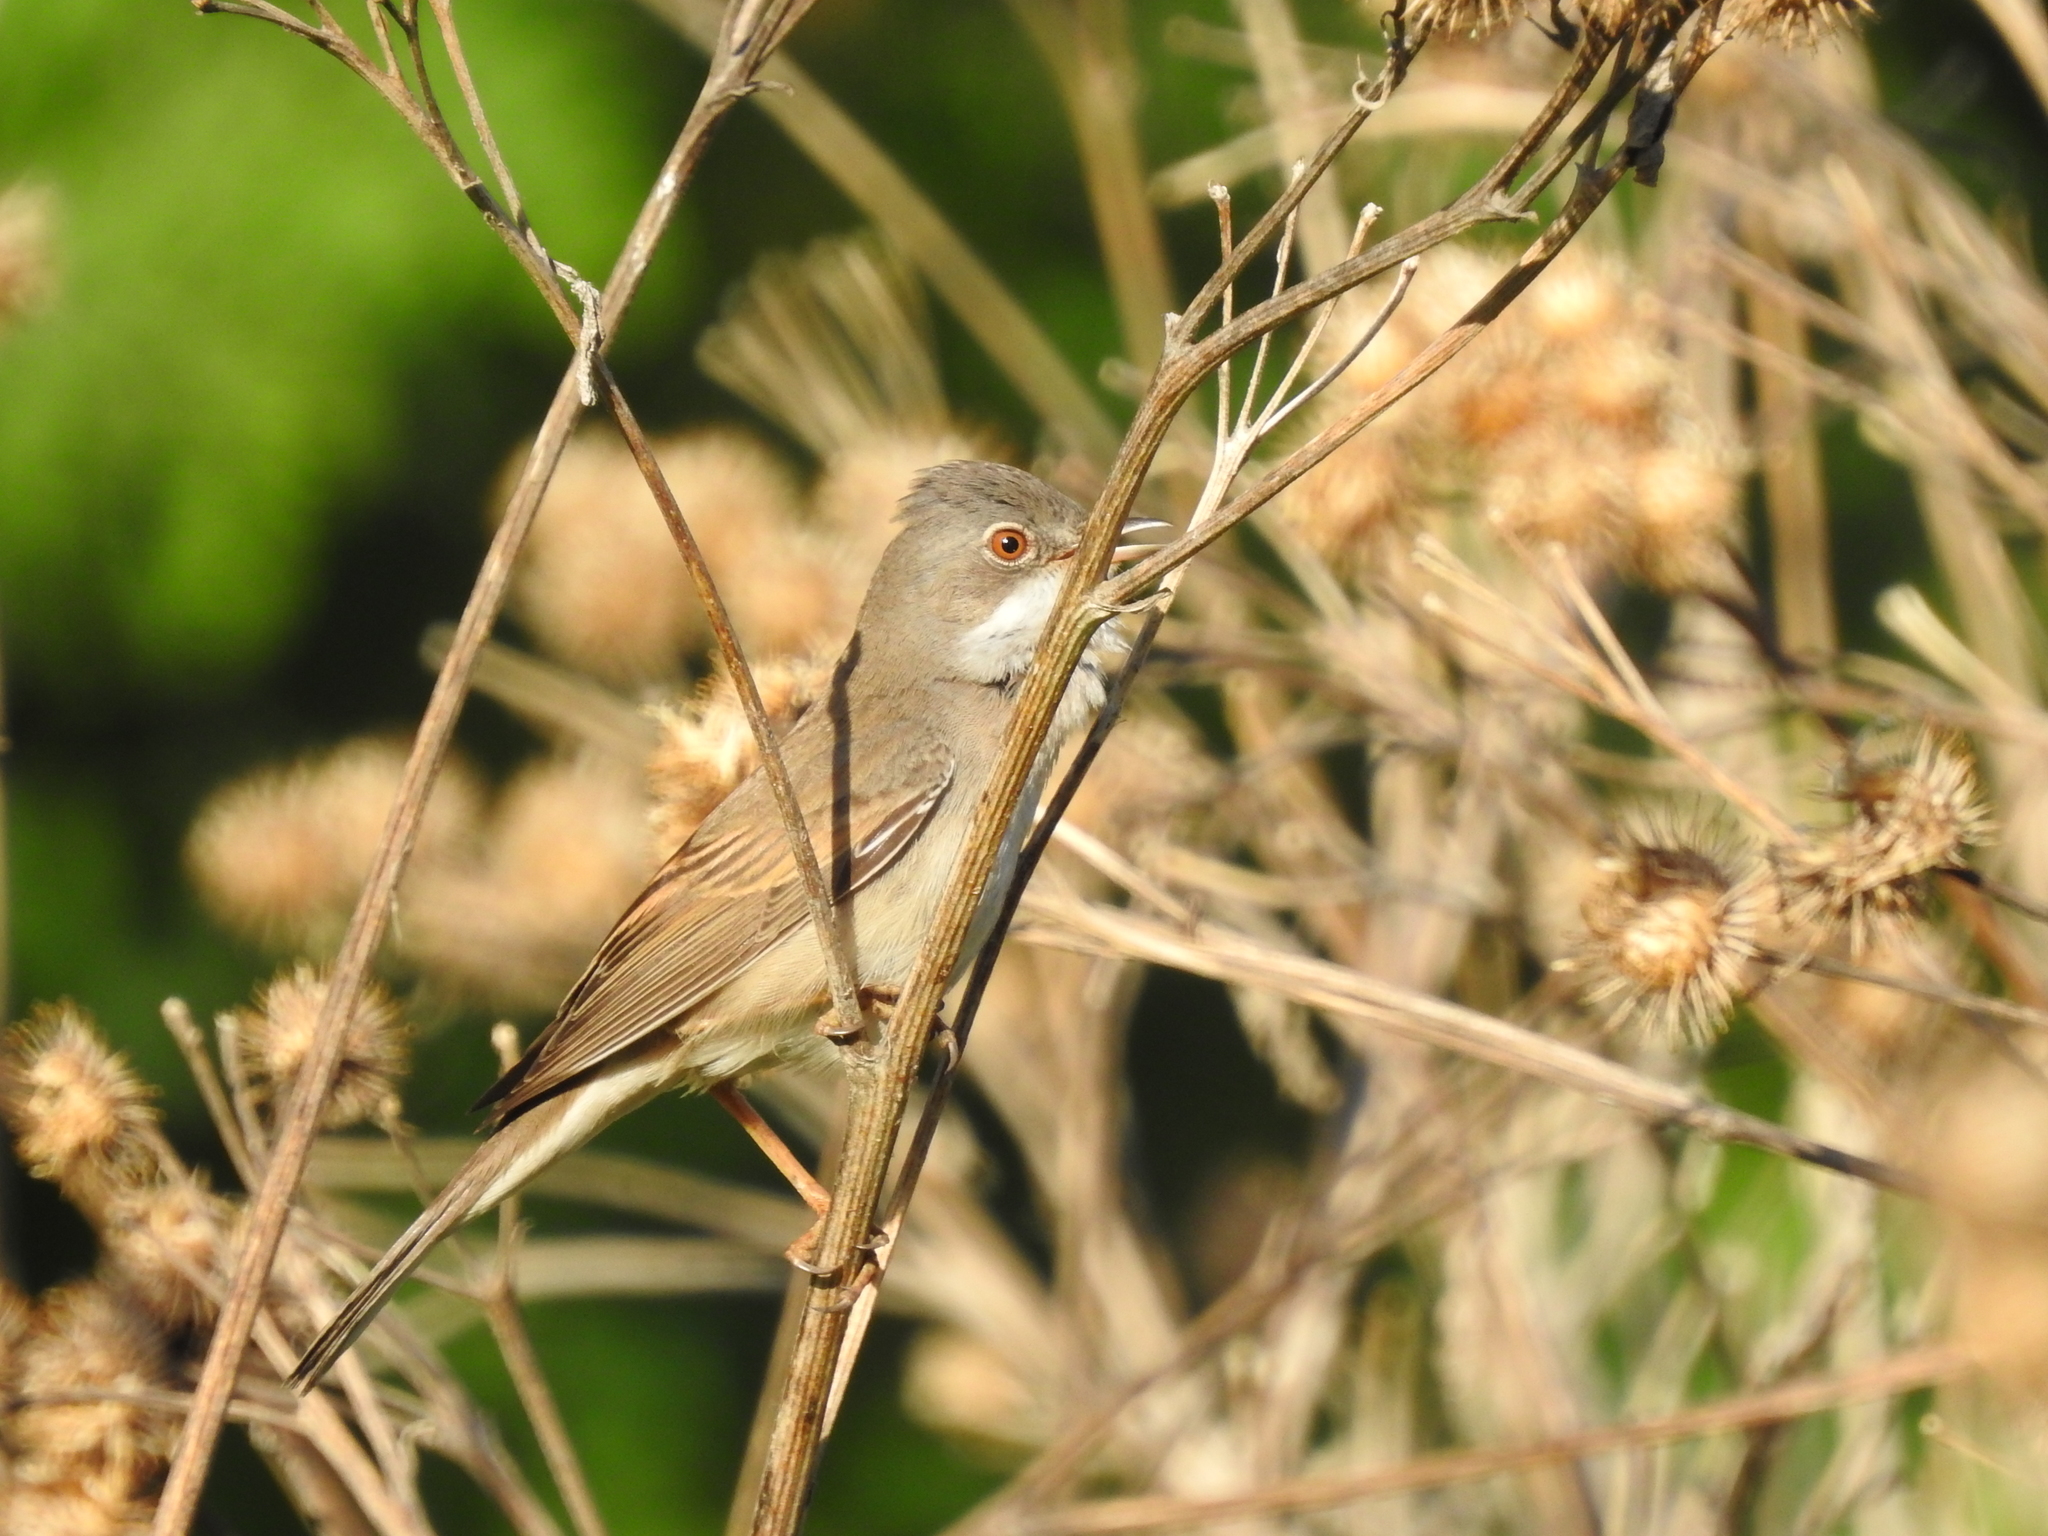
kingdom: Animalia
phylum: Chordata
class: Aves
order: Passeriformes
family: Sylviidae
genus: Sylvia
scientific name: Sylvia communis
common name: Common whitethroat
